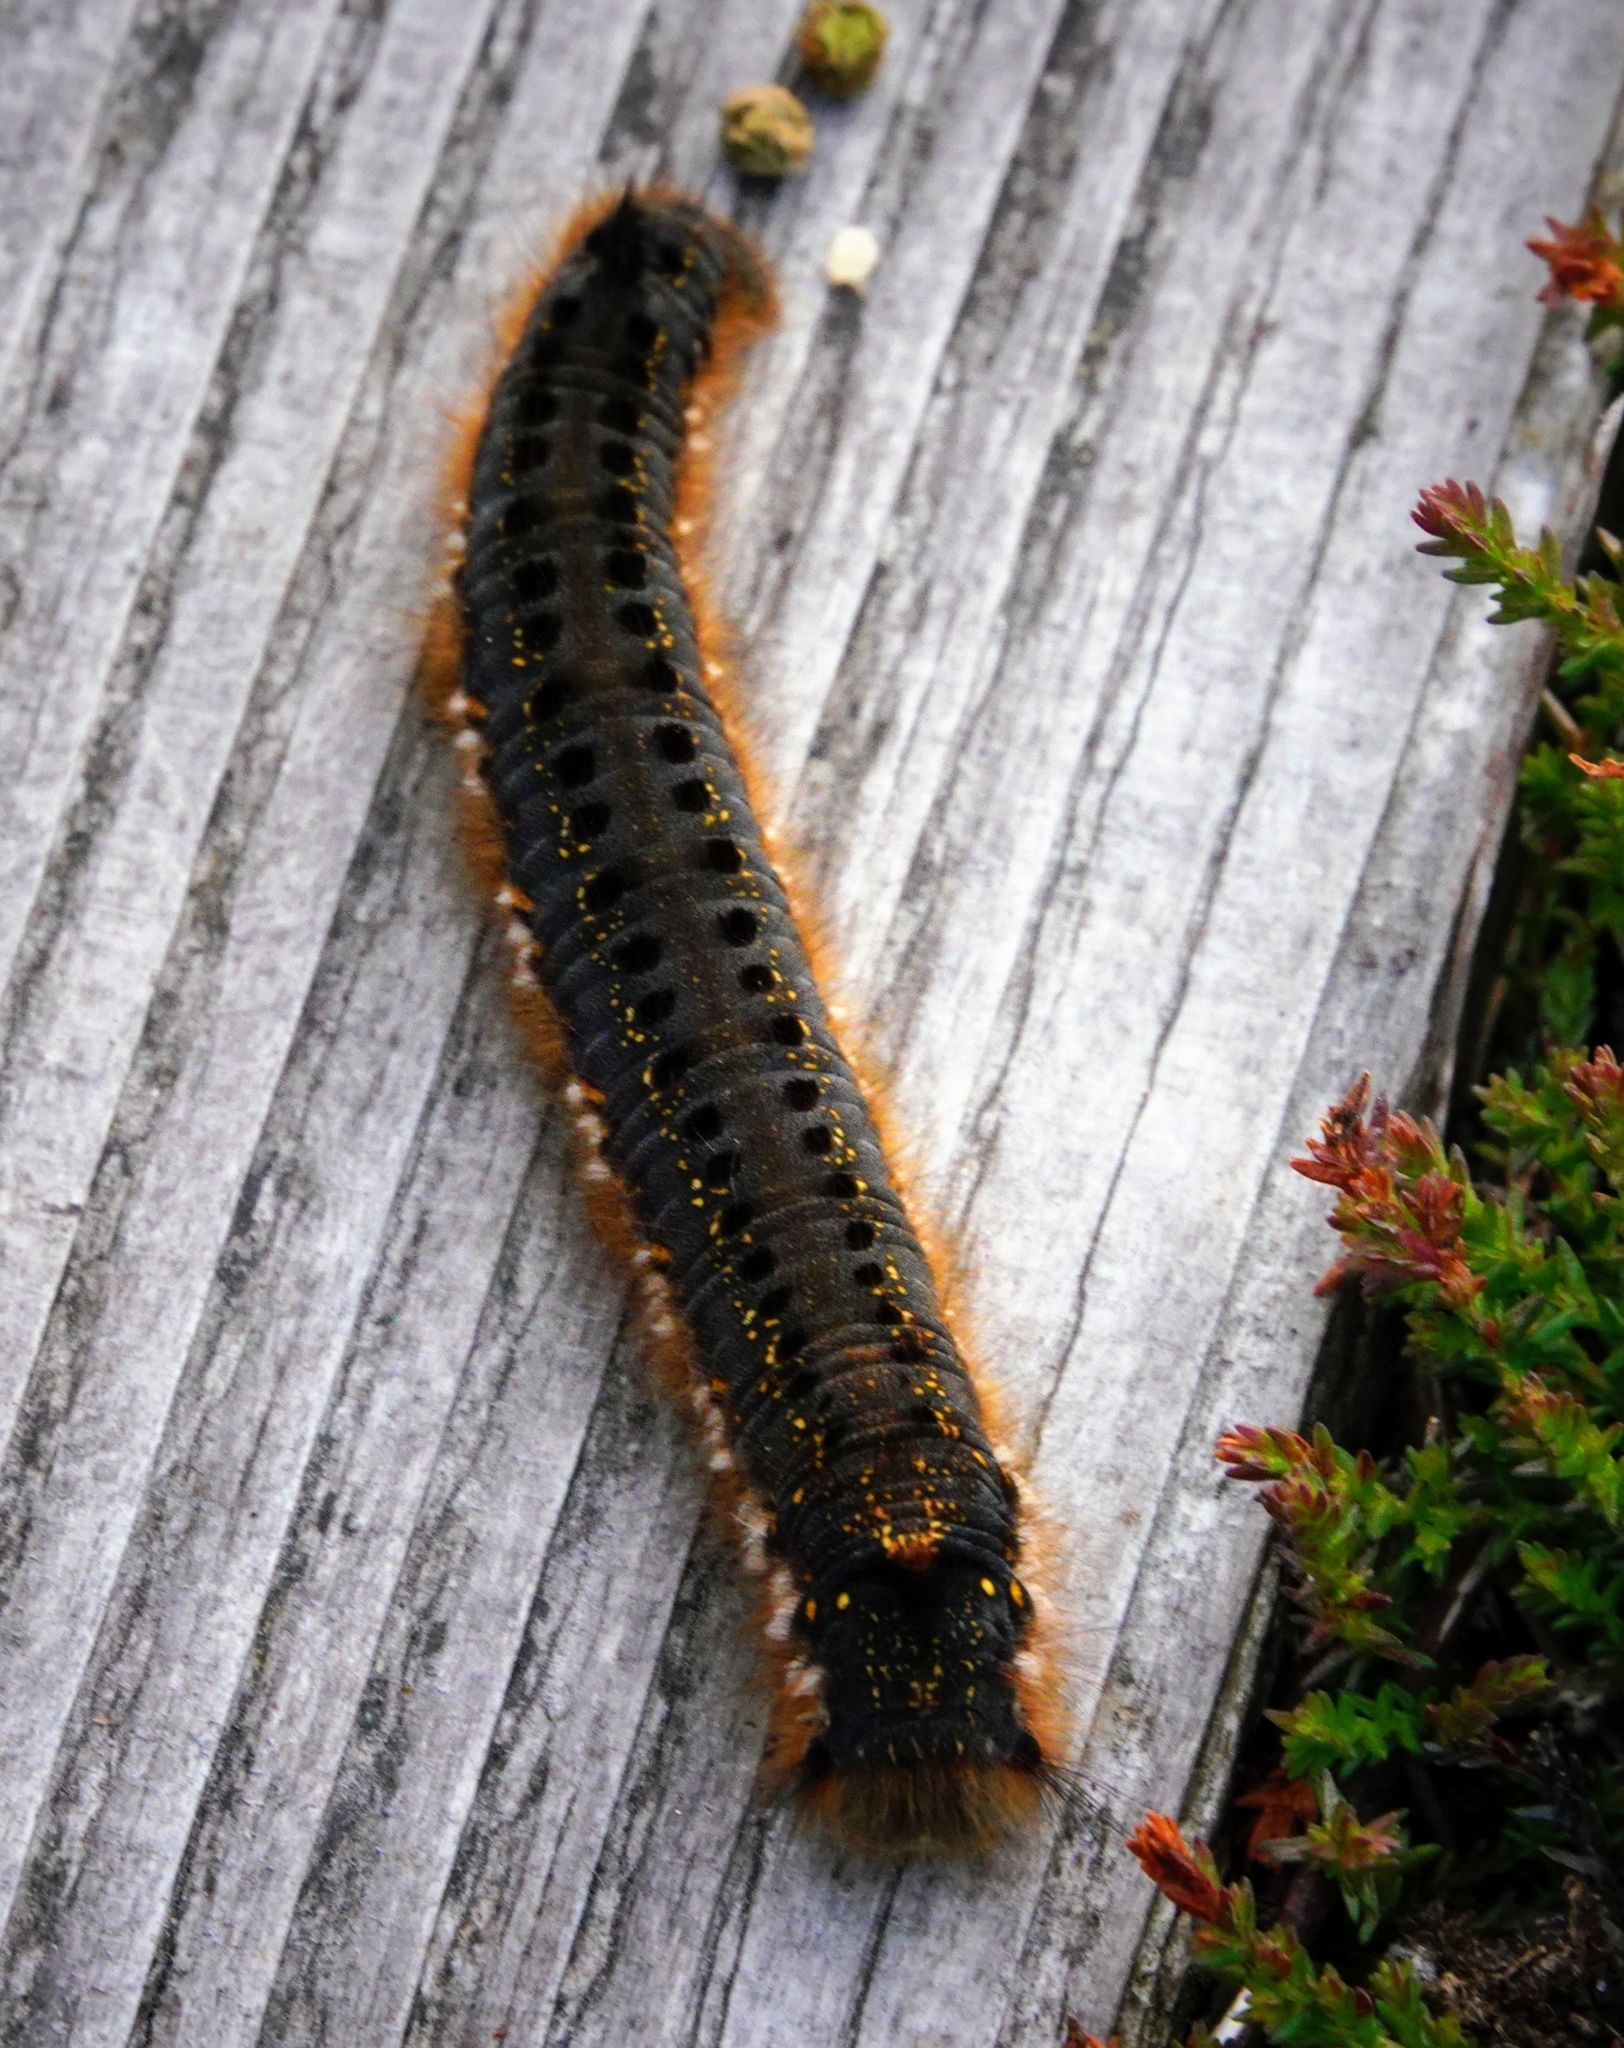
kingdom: Animalia
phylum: Arthropoda
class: Insecta
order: Lepidoptera
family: Lasiocampidae
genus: Euthrix
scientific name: Euthrix potatoria
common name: Drinker
